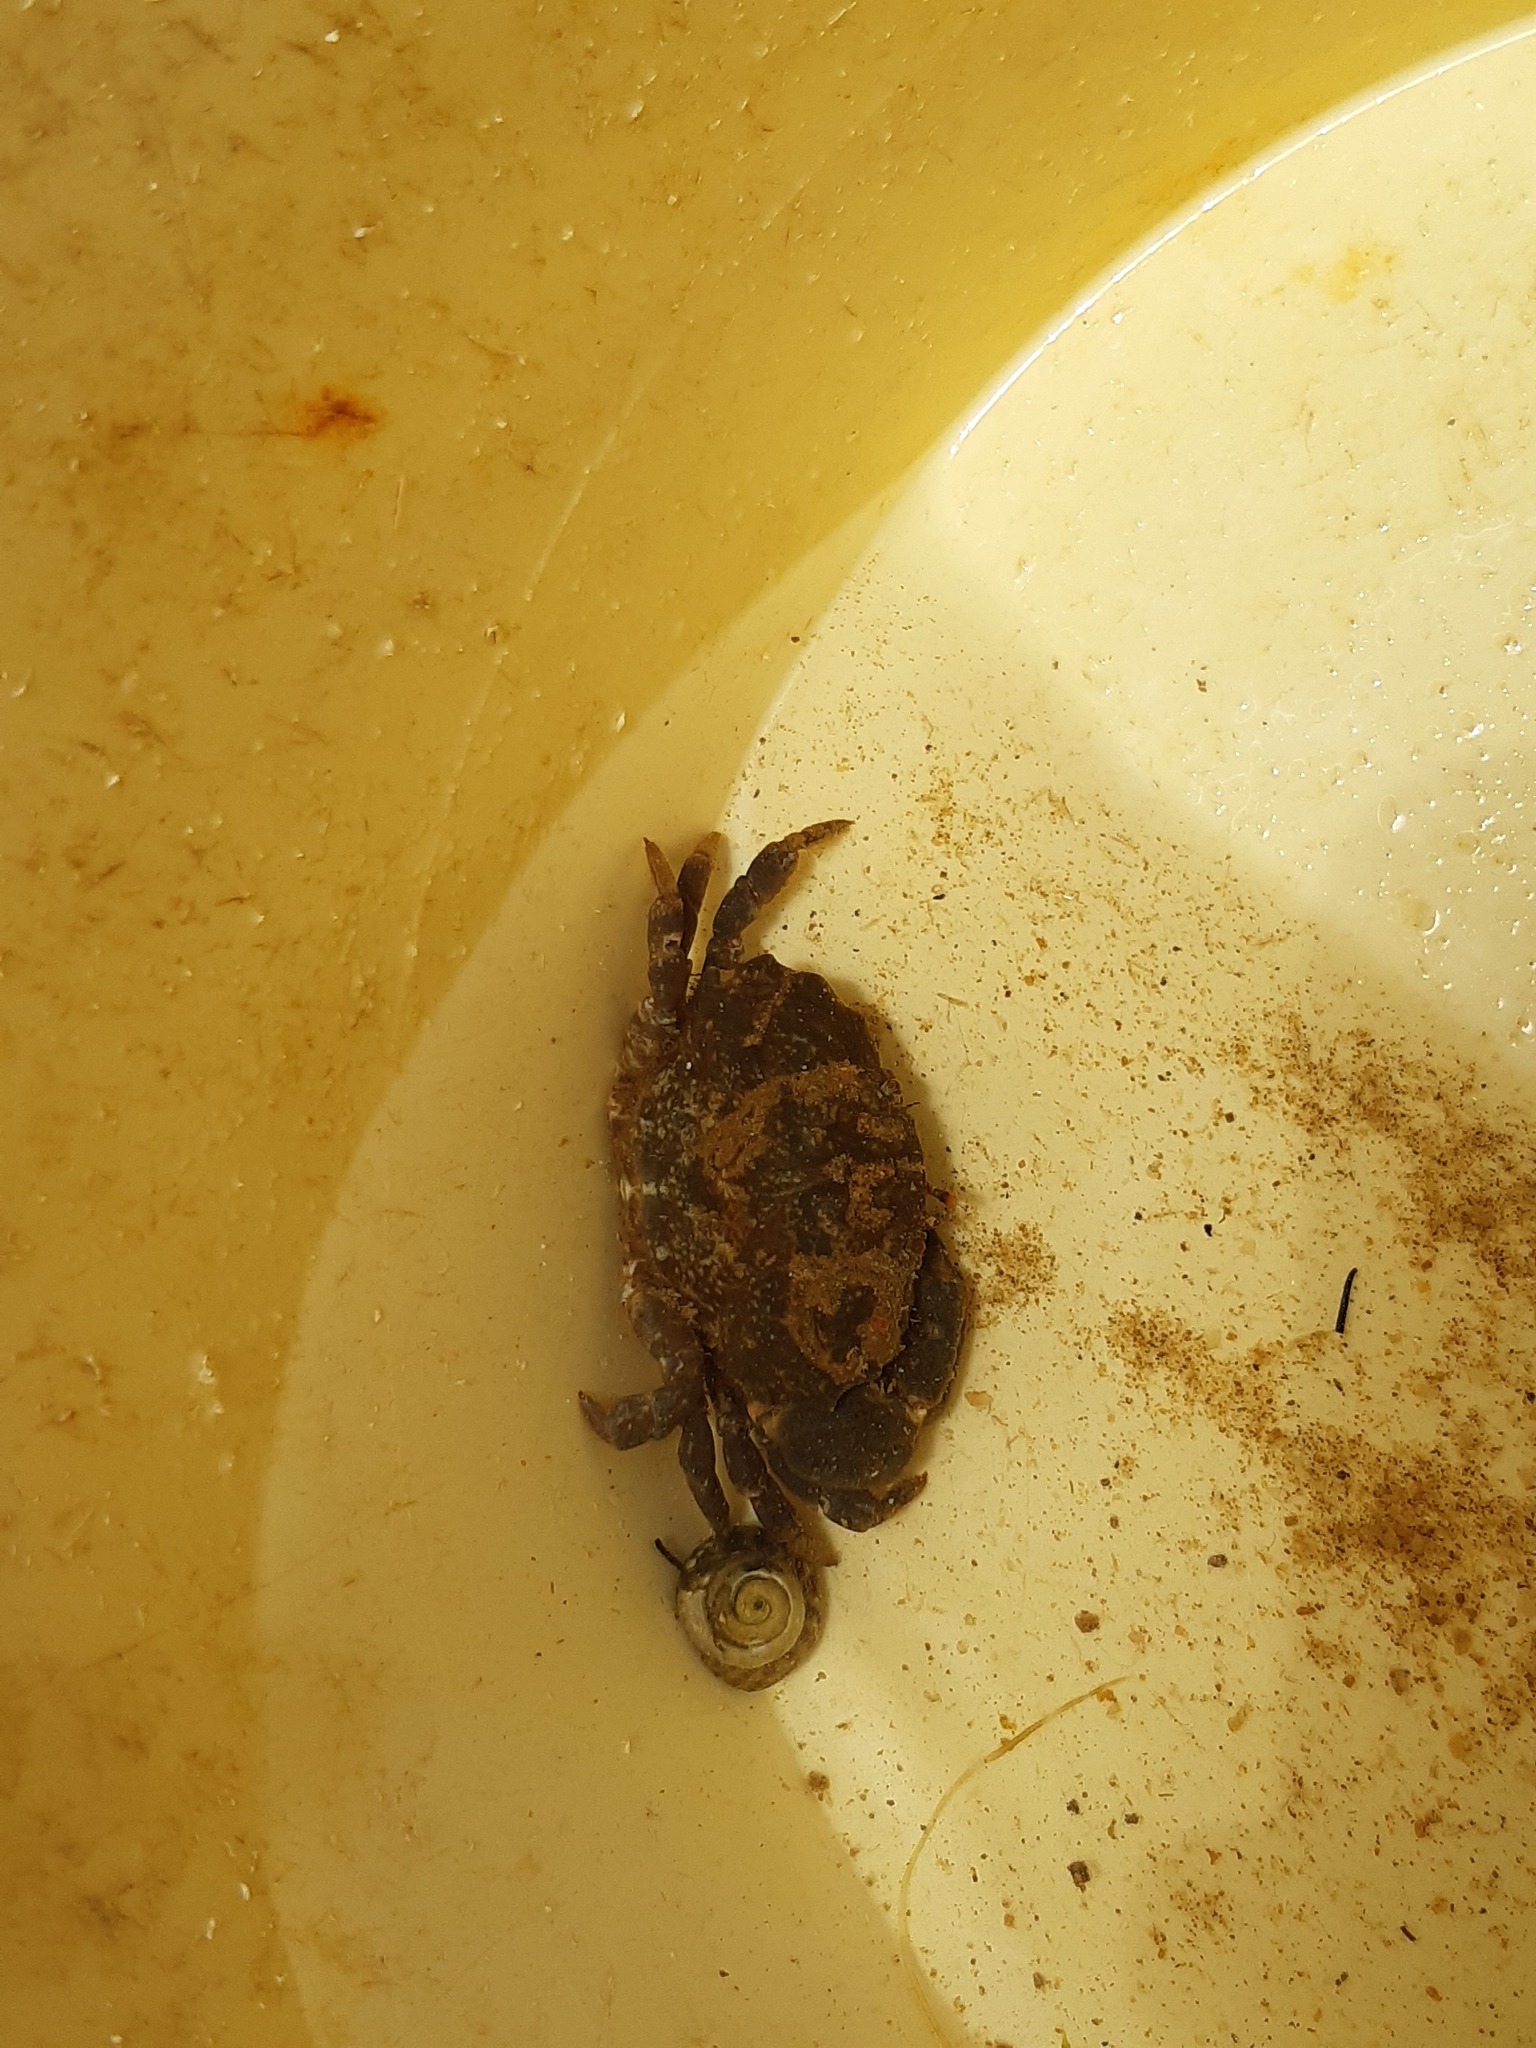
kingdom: Animalia
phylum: Arthropoda
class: Malacostraca
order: Decapoda
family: Xanthidae
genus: Xantho
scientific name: Xantho hydrophilus
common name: Montagu's crab
